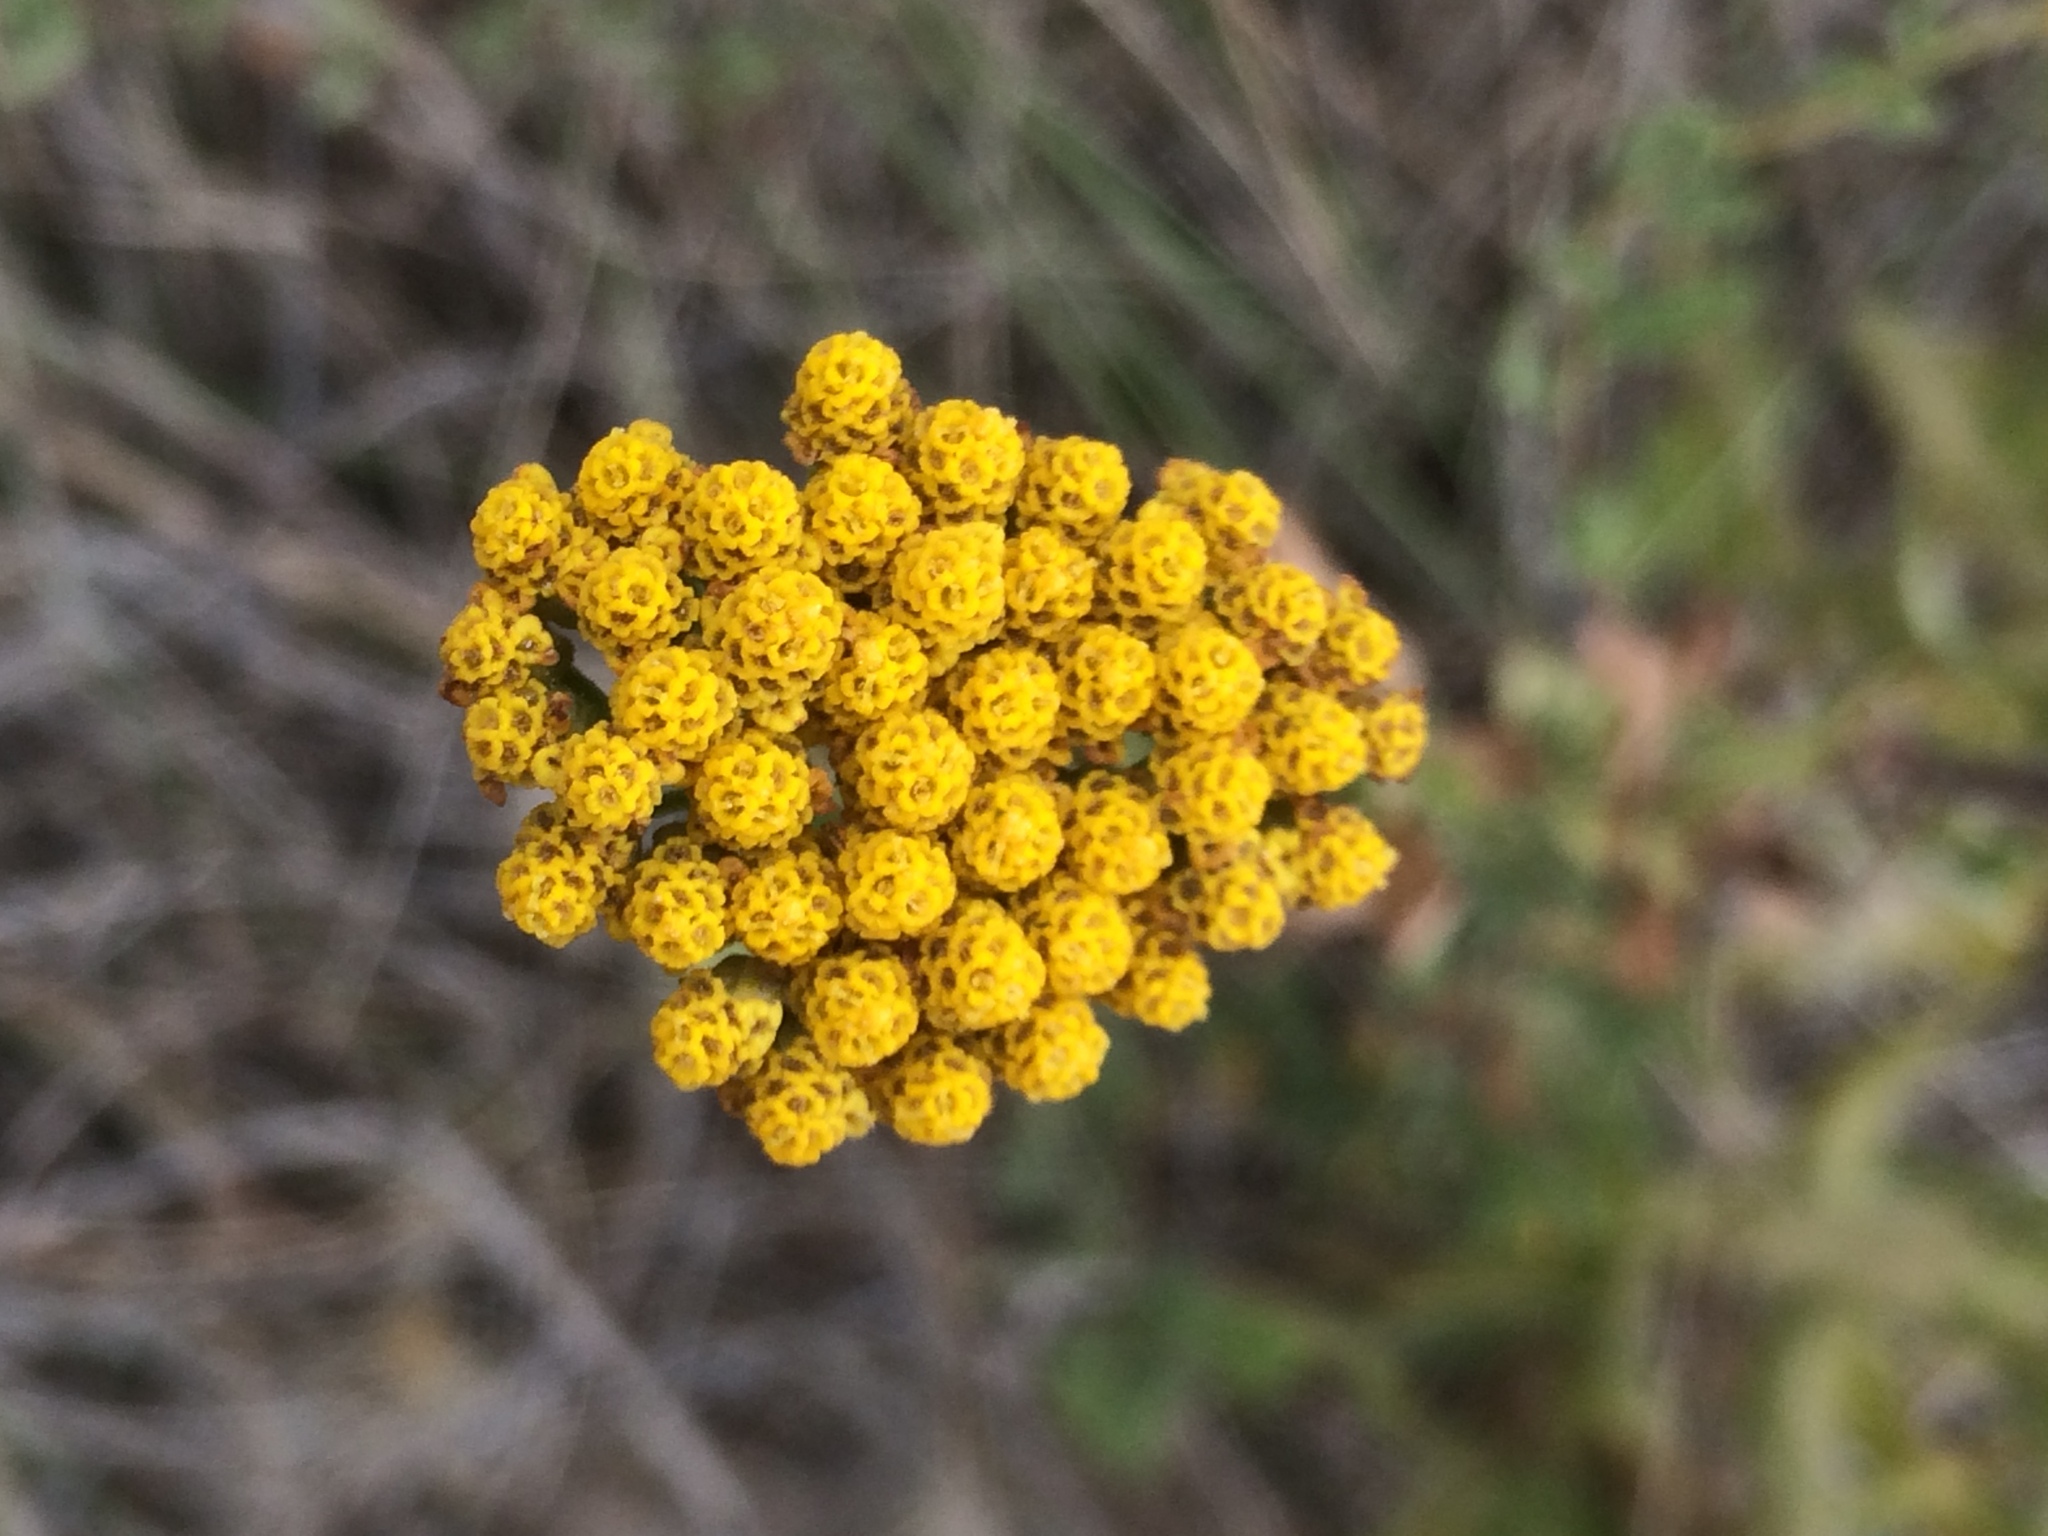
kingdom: Plantae
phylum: Tracheophyta
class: Magnoliopsida
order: Asterales
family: Asteraceae
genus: Achillea
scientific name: Achillea ageratum
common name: Sweet-nancy
